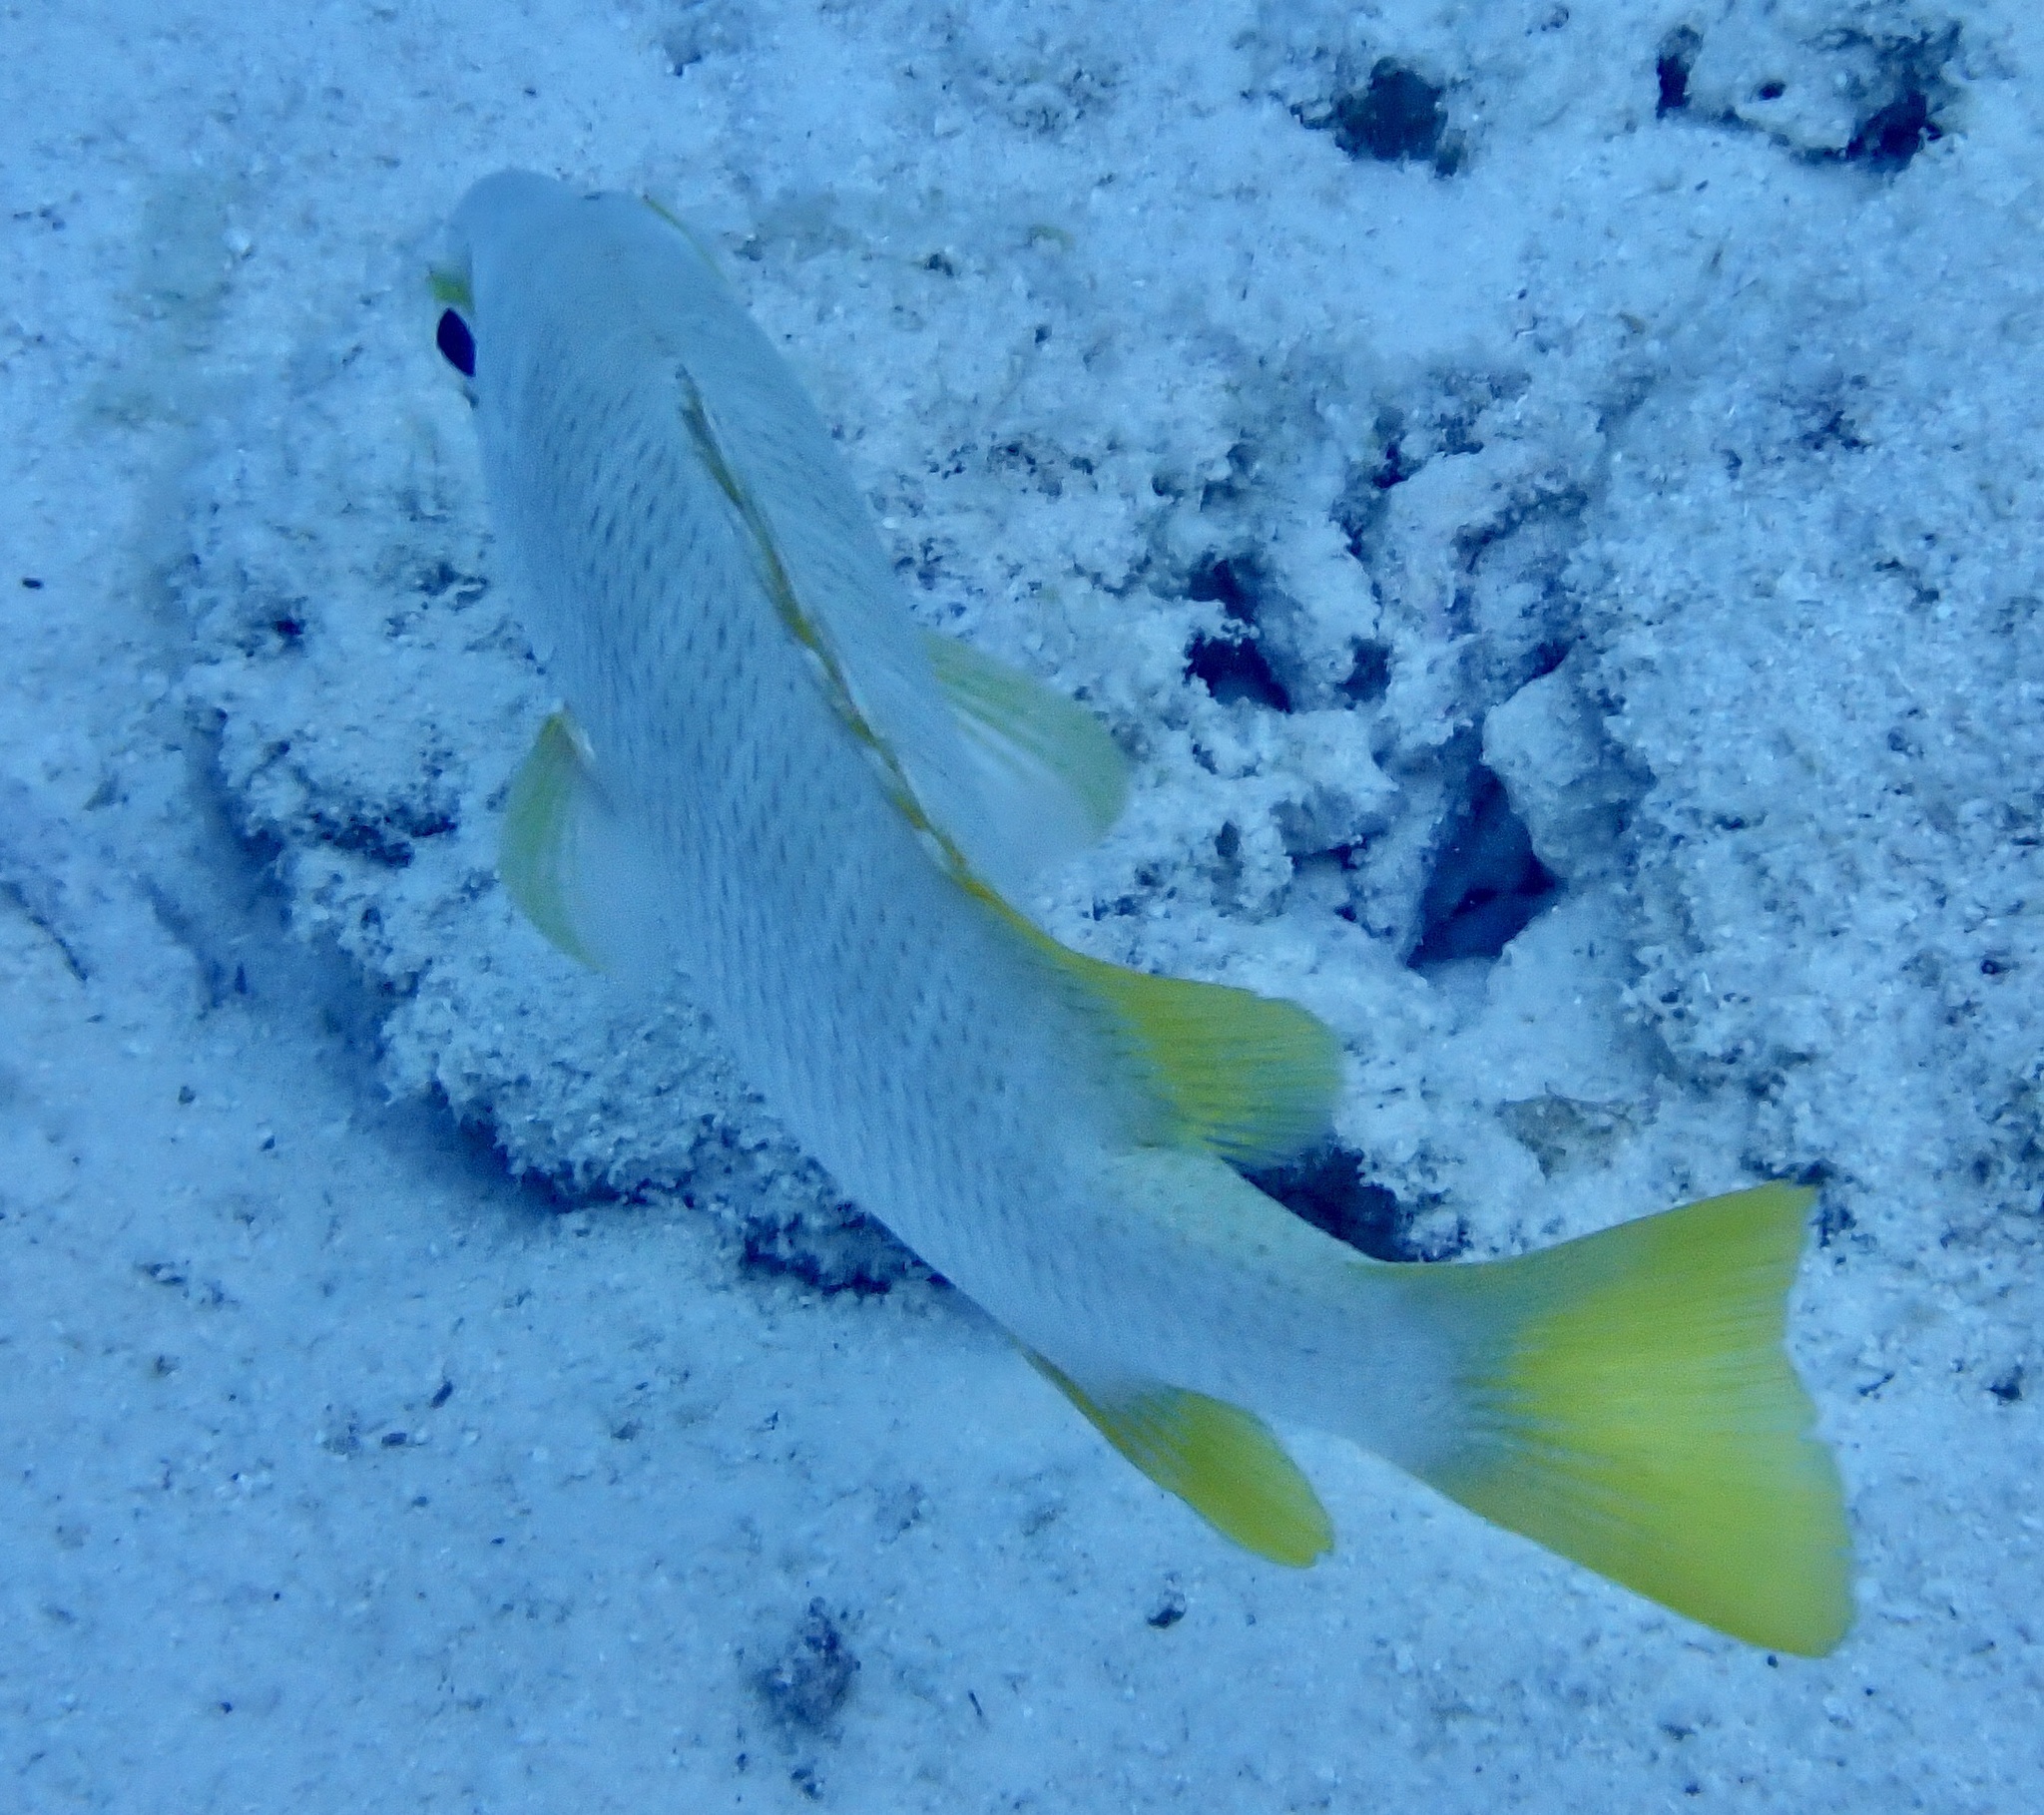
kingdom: Animalia
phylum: Chordata
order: Perciformes
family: Lutjanidae
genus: Lutjanus
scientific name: Lutjanus apodus
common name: Schoolmaster
